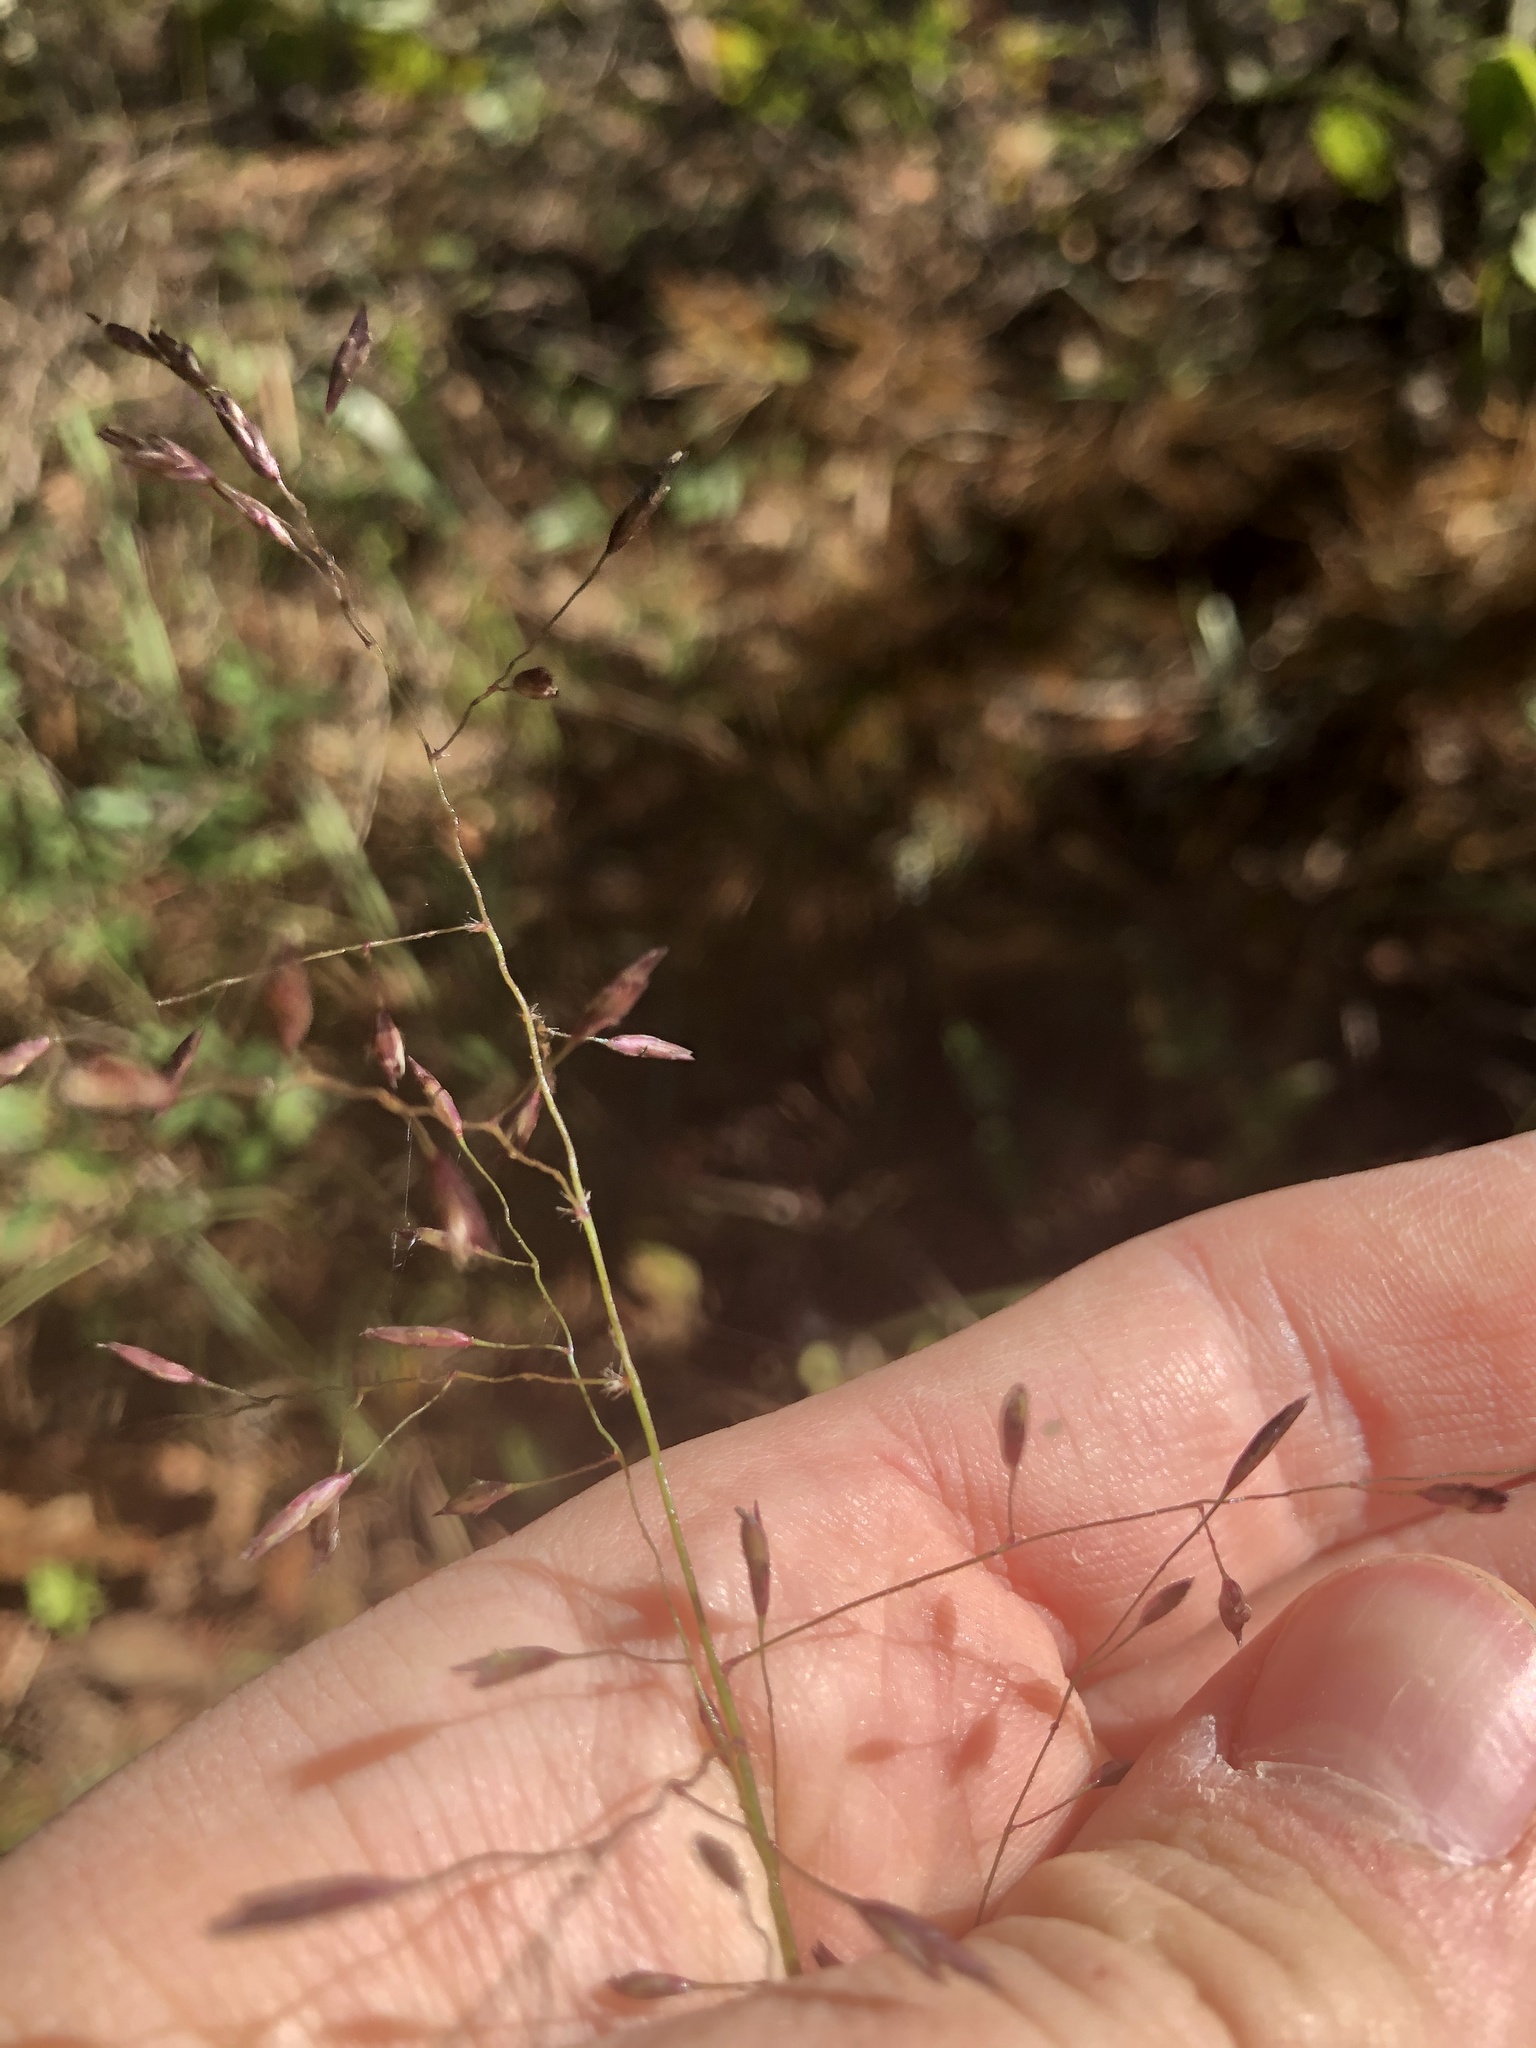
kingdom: Plantae
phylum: Tracheophyta
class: Liliopsida
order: Poales
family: Poaceae
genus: Tridens
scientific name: Tridens chapmanii
